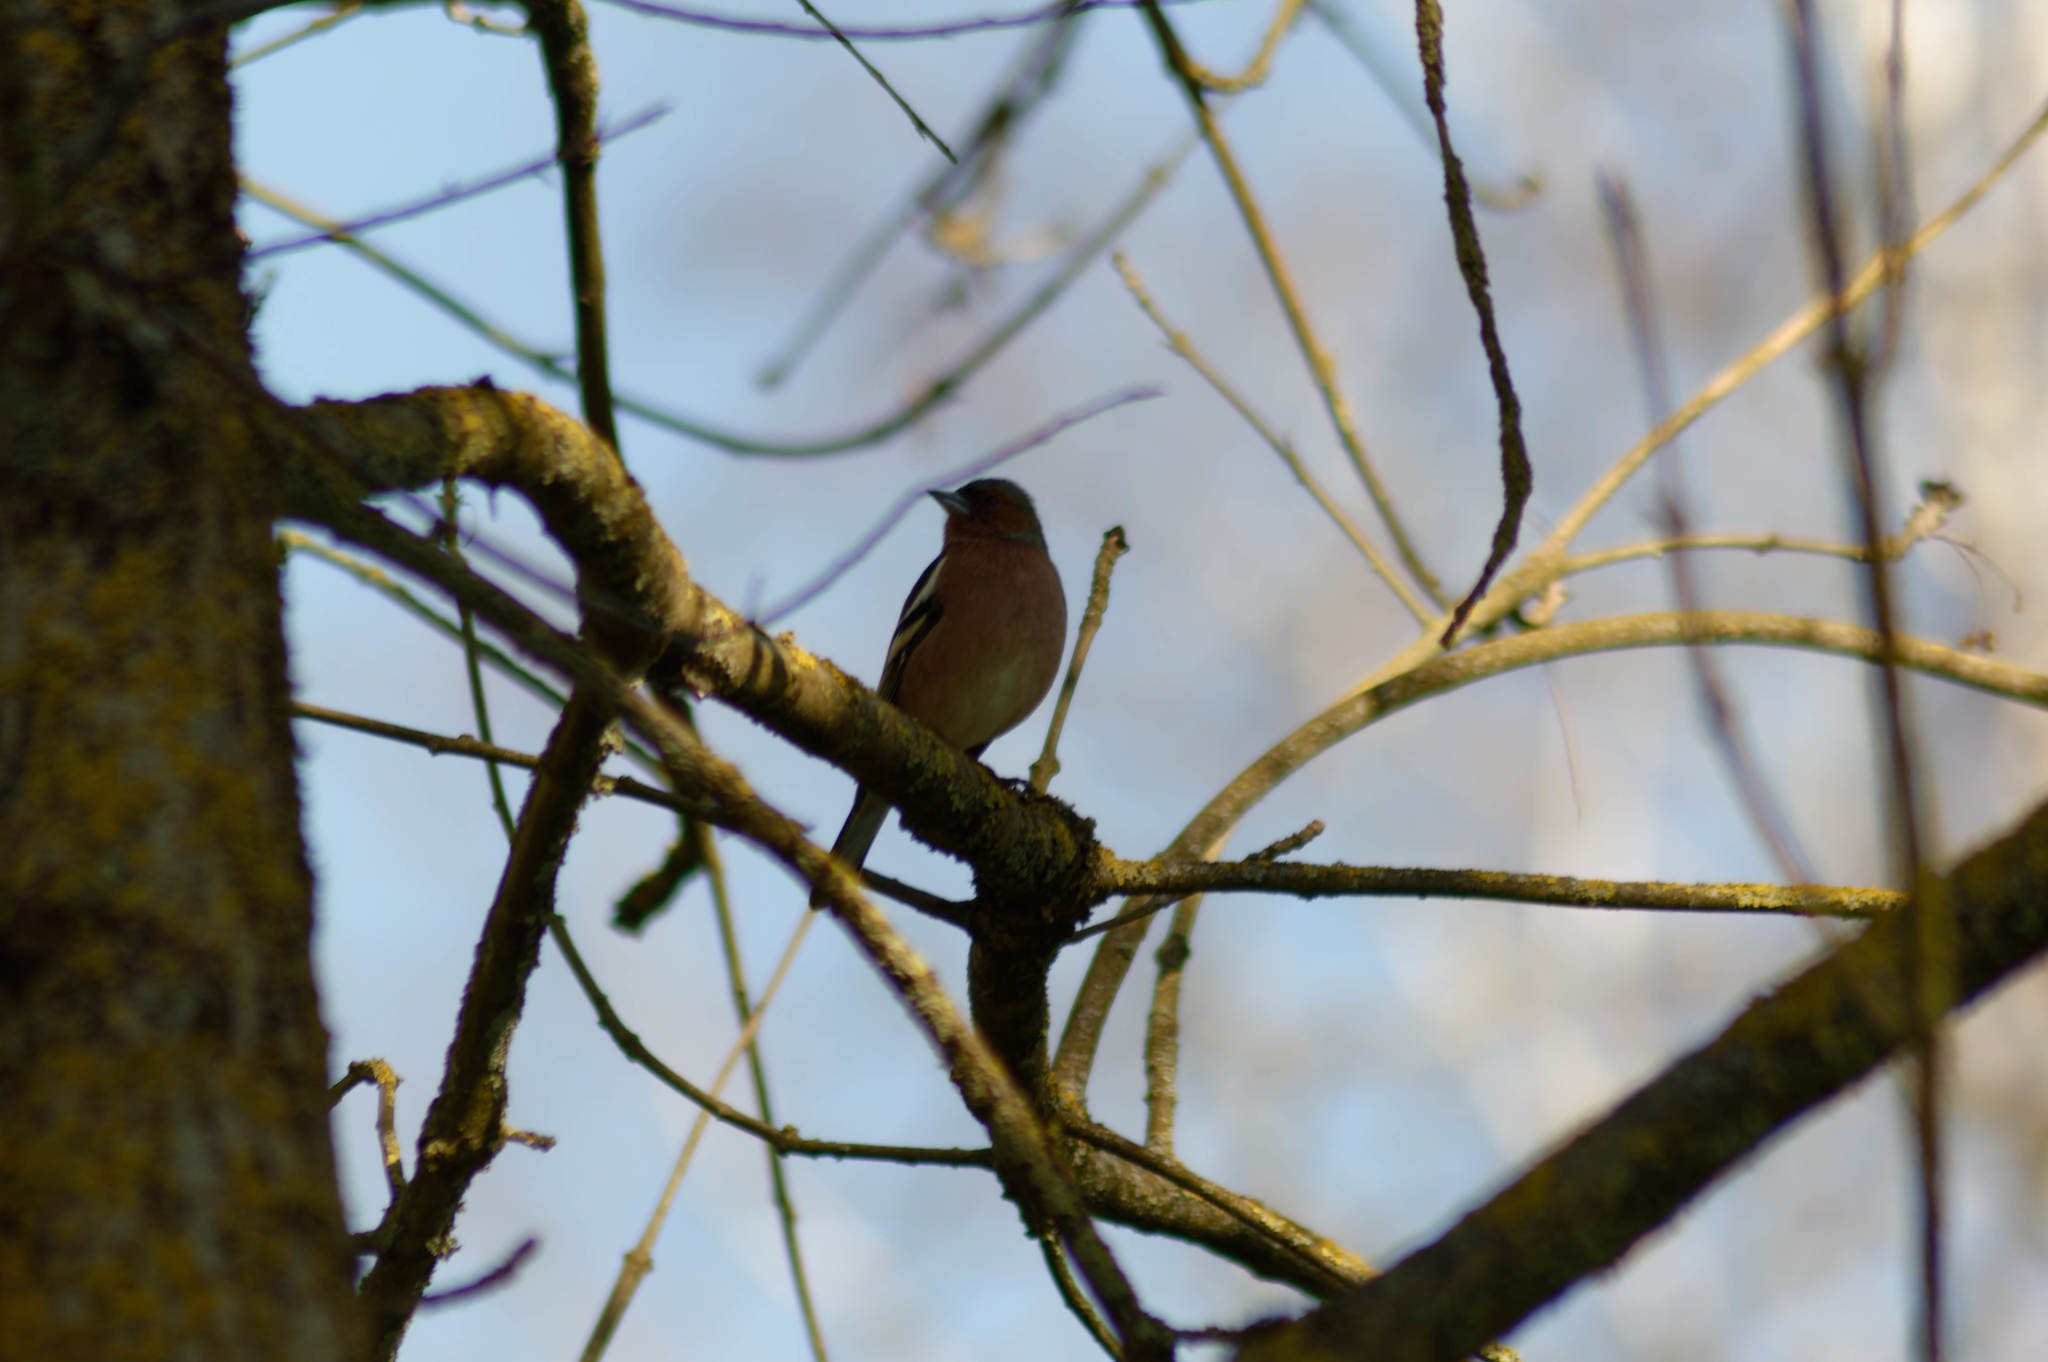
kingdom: Animalia
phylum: Chordata
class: Aves
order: Passeriformes
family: Fringillidae
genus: Fringilla
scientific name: Fringilla coelebs
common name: Common chaffinch
